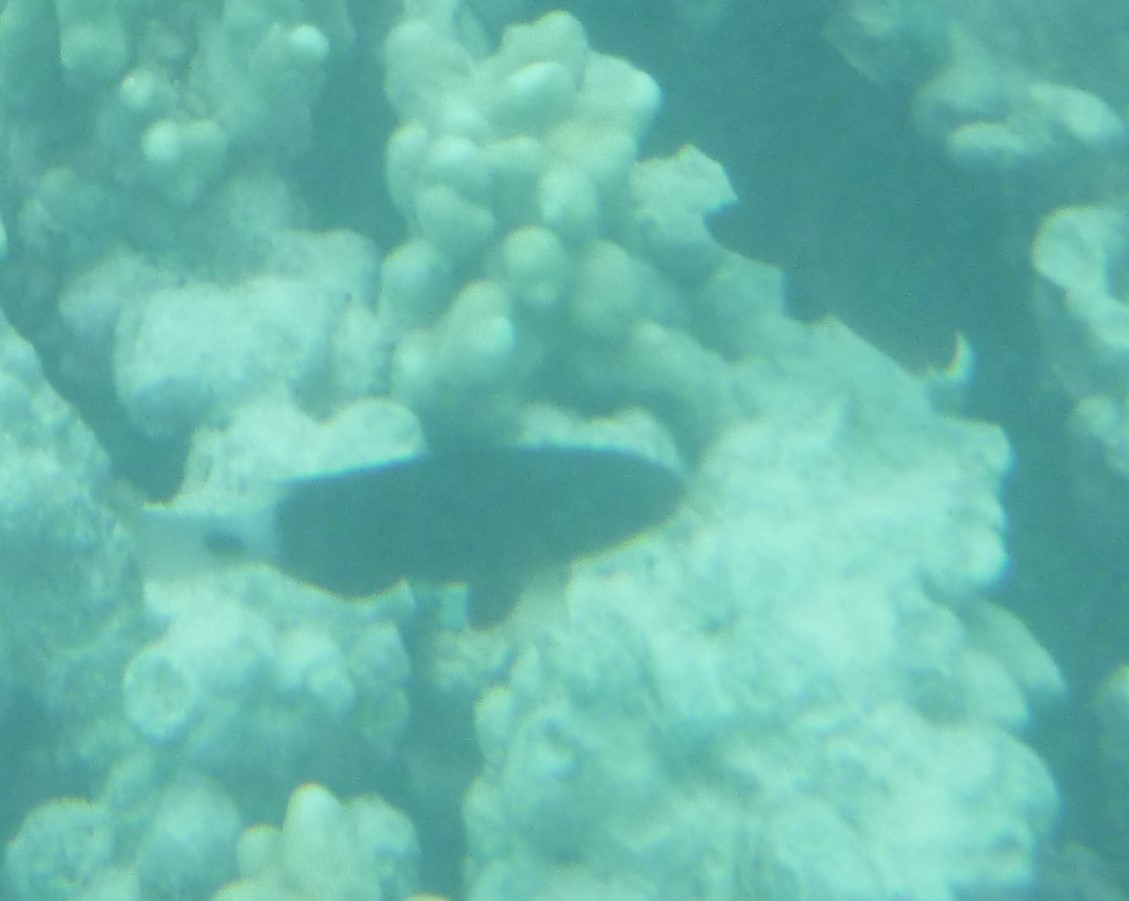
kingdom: Animalia
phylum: Chordata
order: Perciformes
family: Scaridae
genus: Chlorurus
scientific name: Chlorurus spilurus
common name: Bullethead parrotfish
